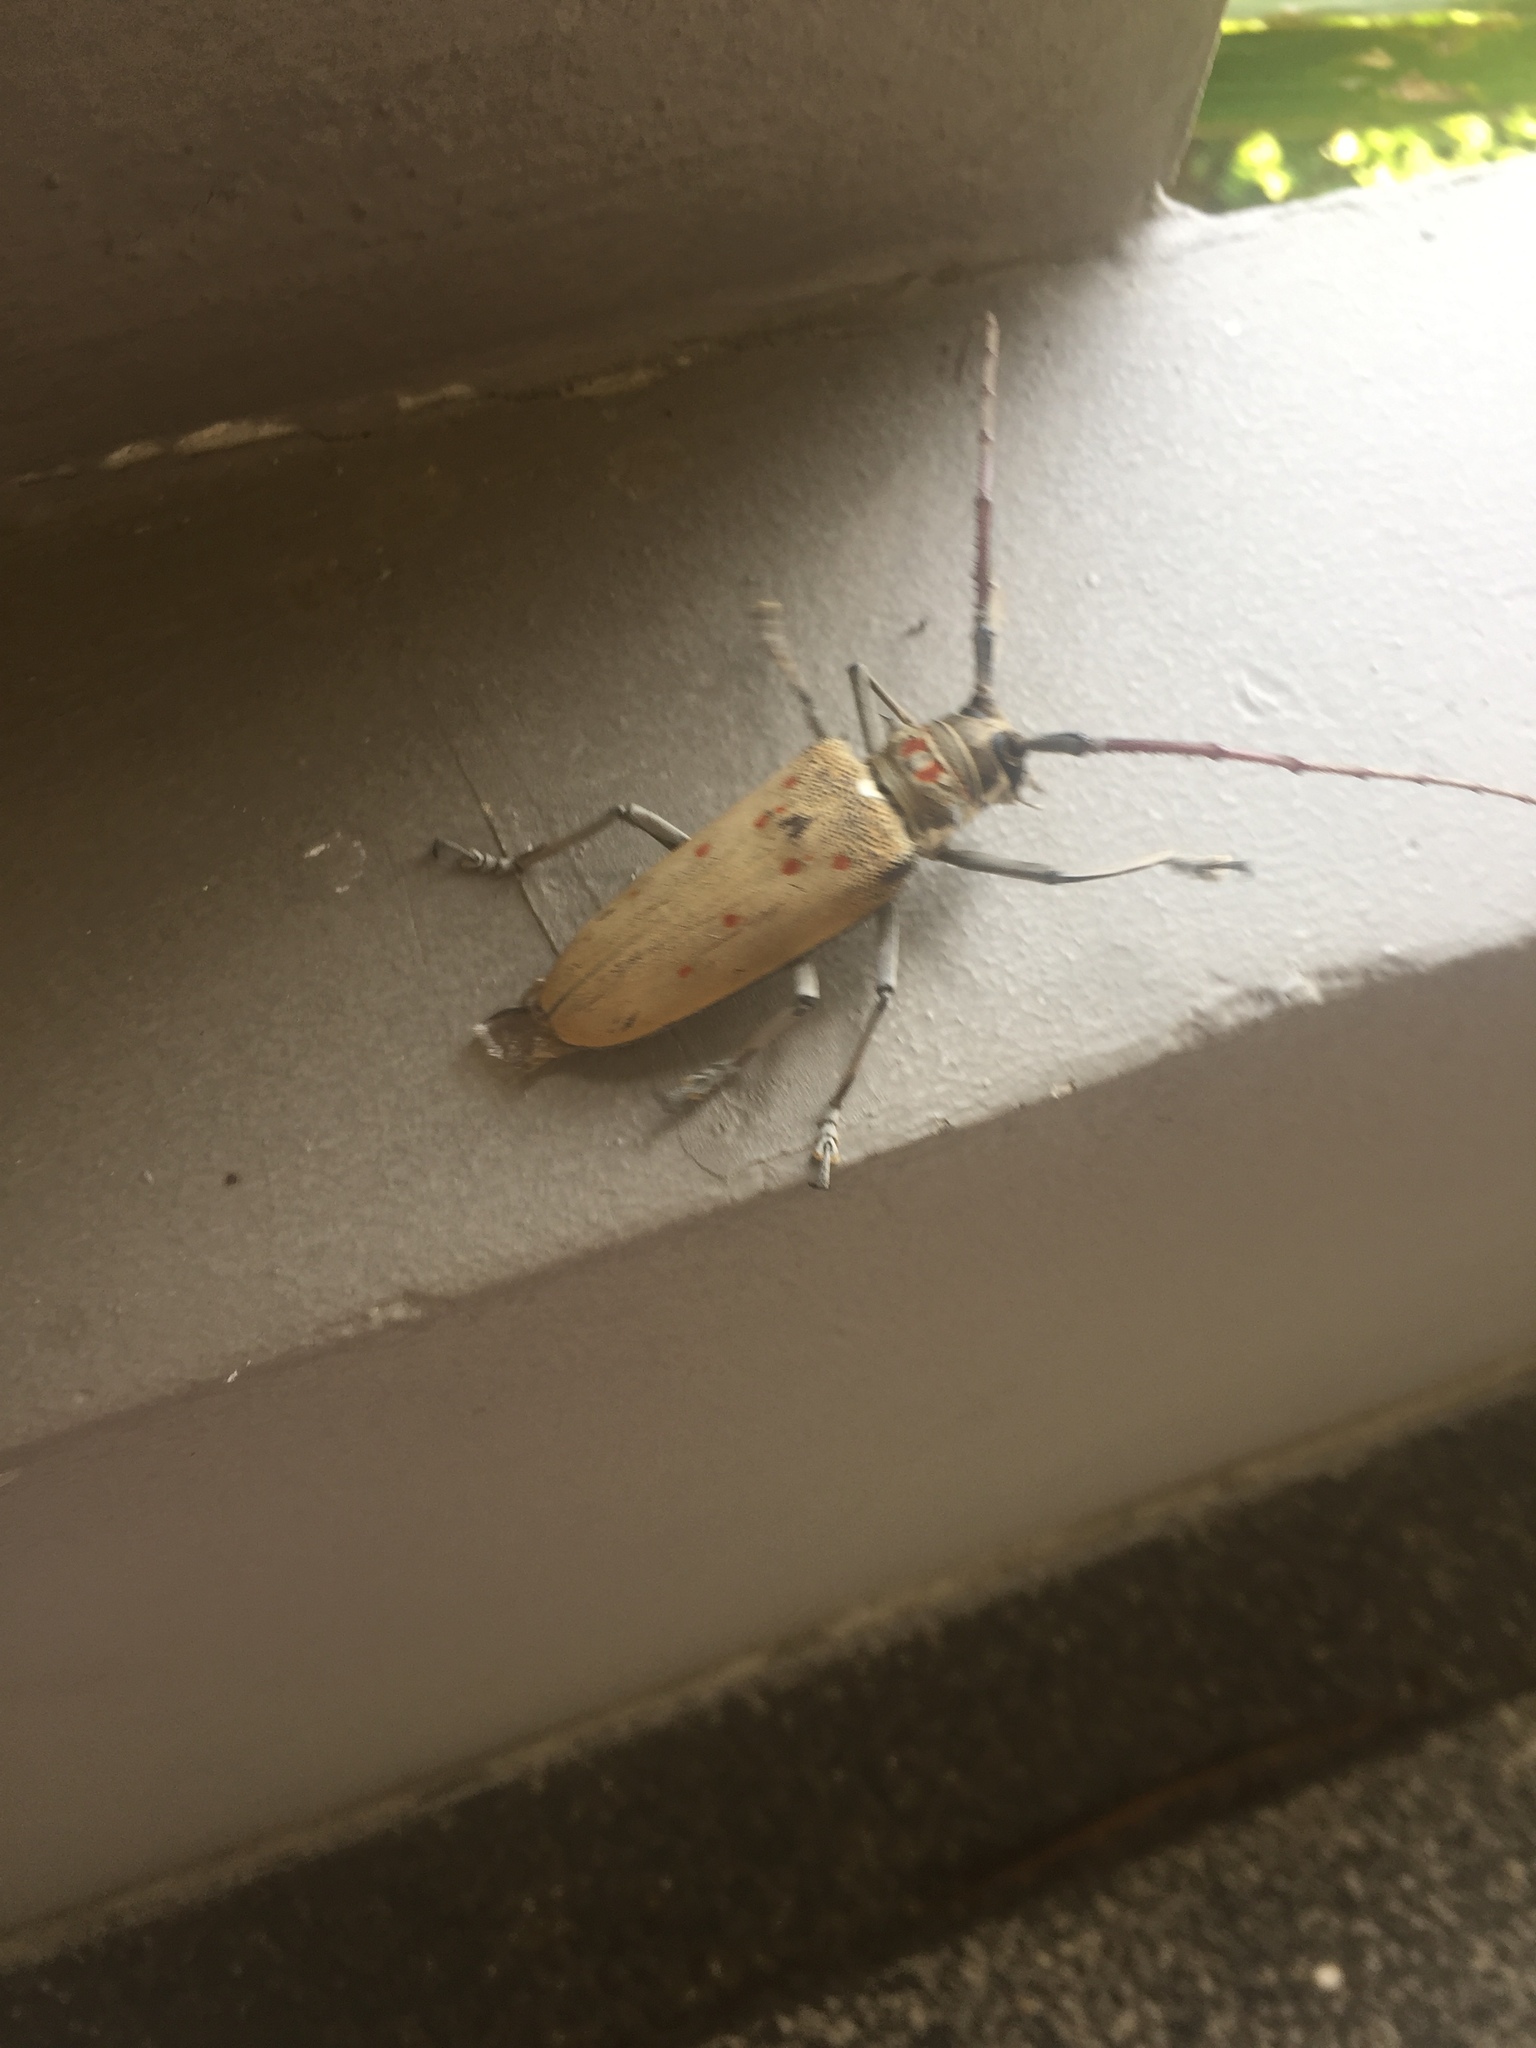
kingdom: Animalia
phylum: Arthropoda
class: Insecta
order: Coleoptera
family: Cerambycidae
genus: Batocera
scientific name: Batocera numitor
